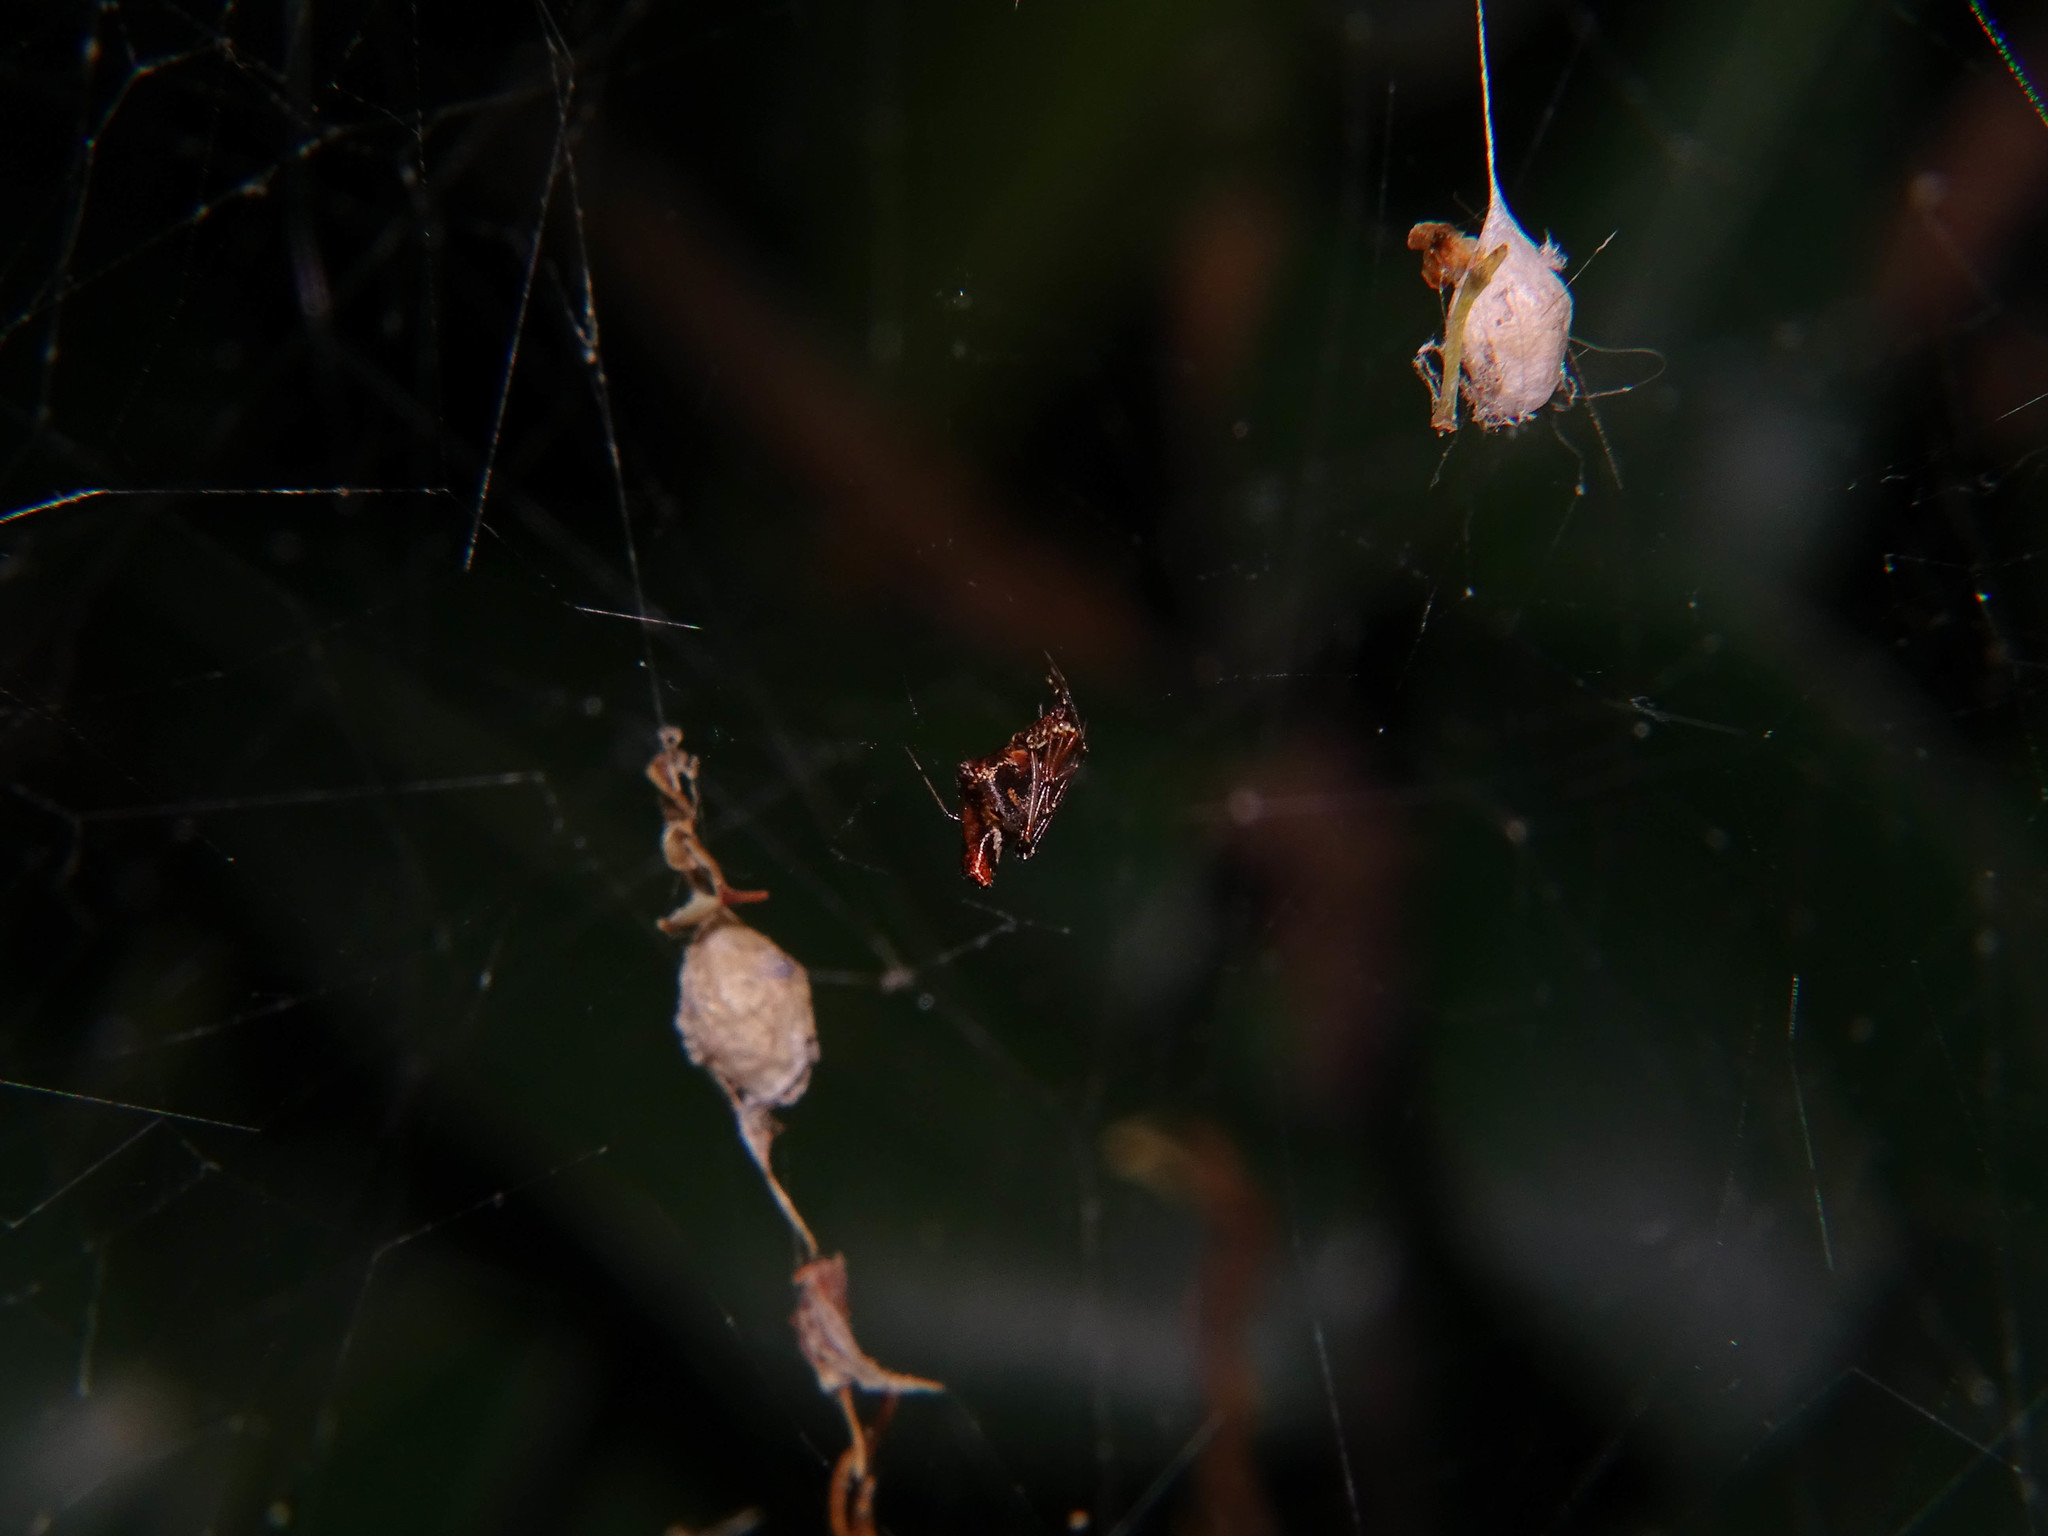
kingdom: Animalia
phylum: Arthropoda
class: Arachnida
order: Araneae
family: Theridiidae
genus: Neospintharus
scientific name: Neospintharus syriacus
